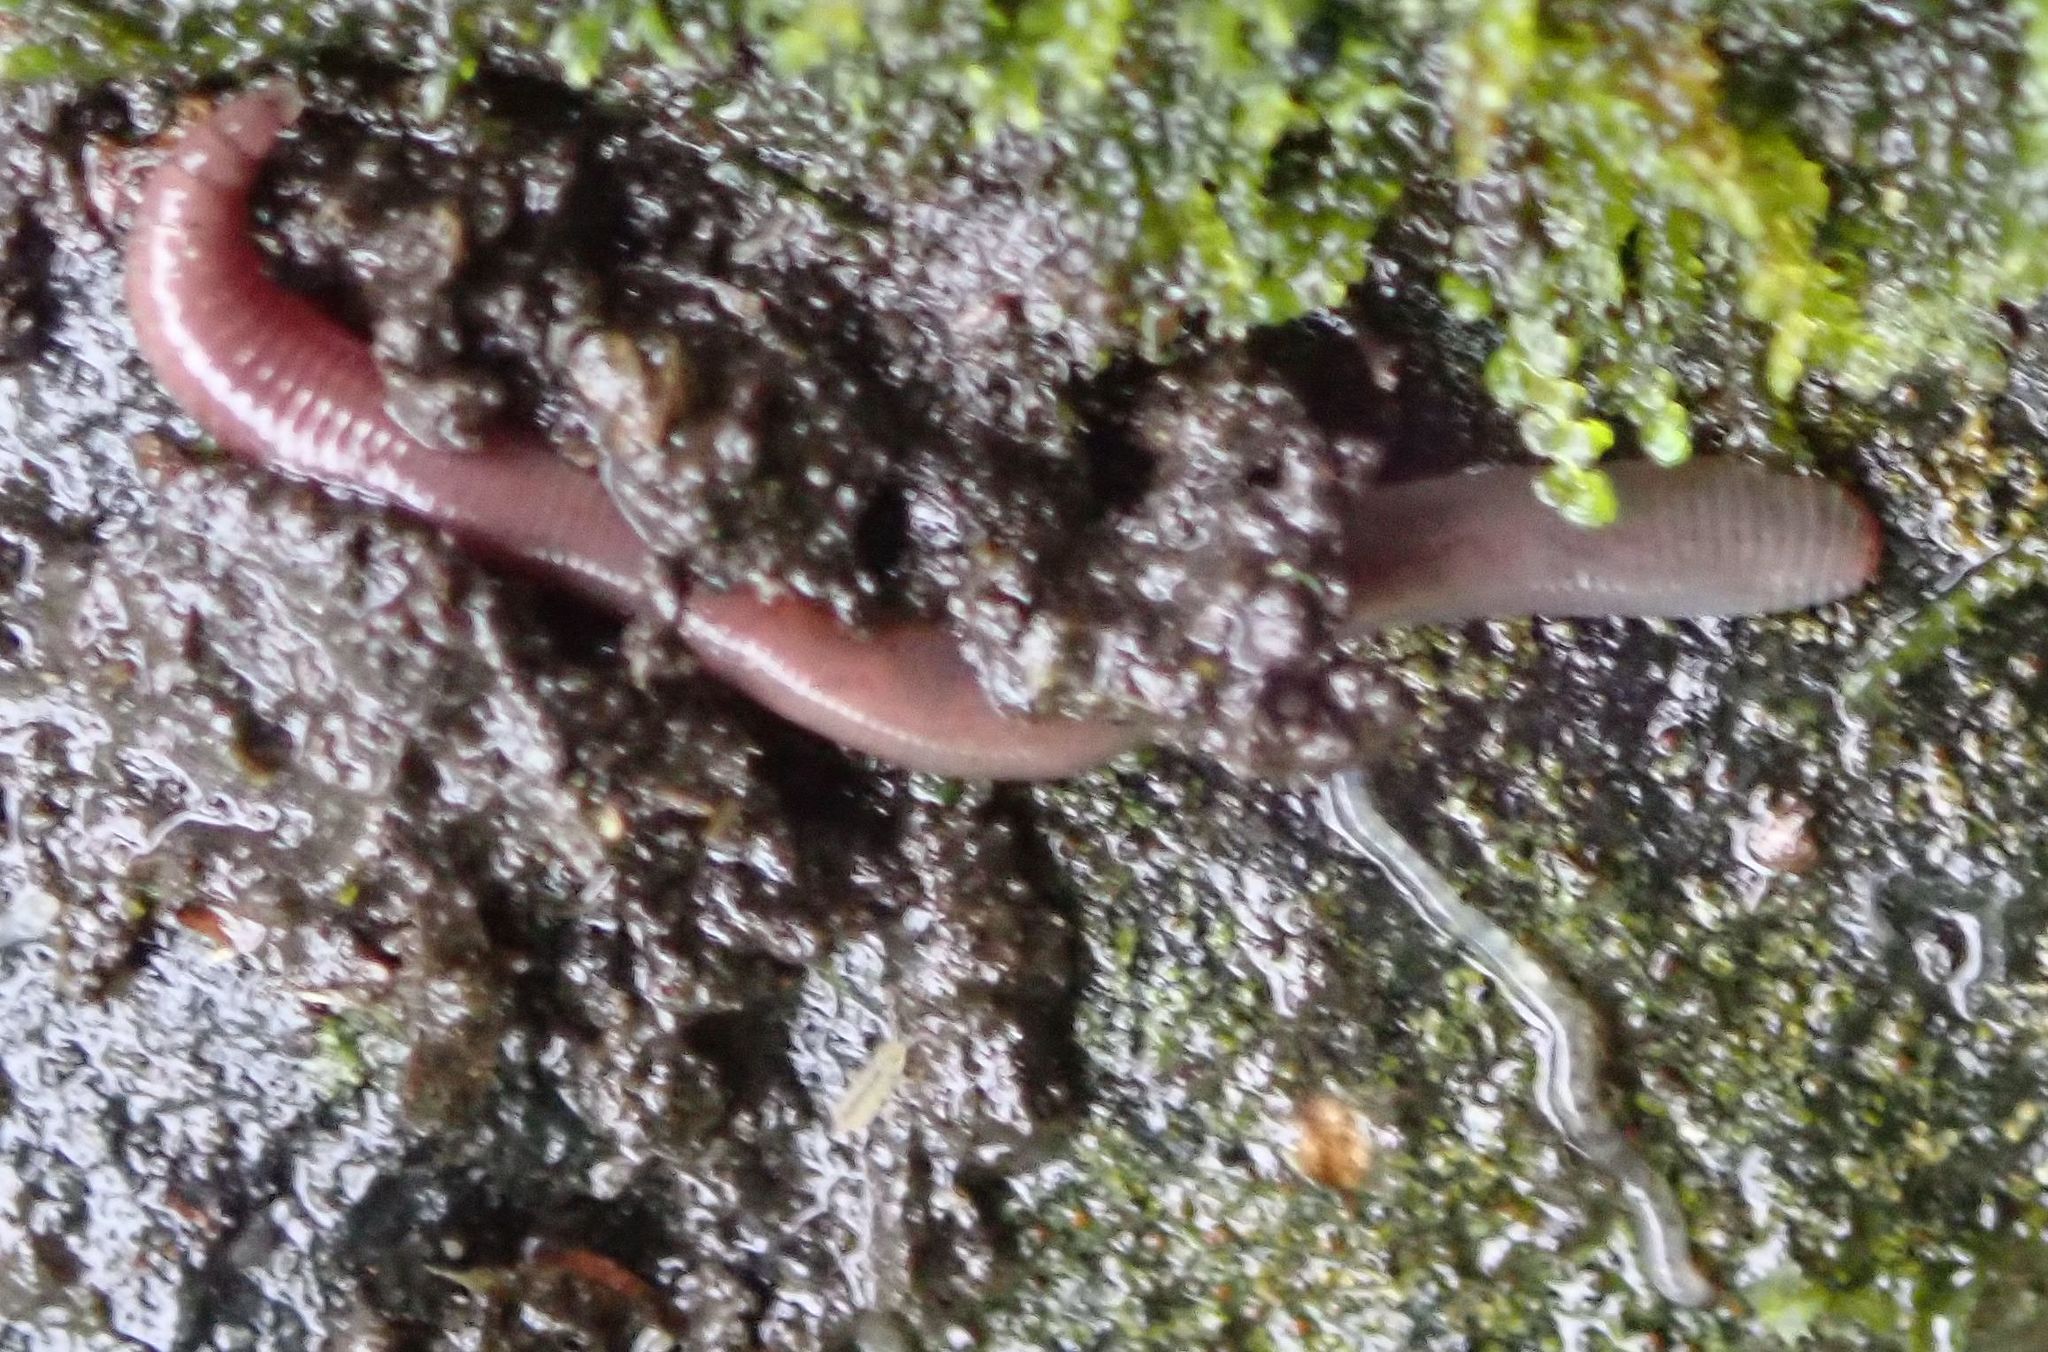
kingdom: Animalia
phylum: Annelida
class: Clitellata
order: Crassiclitellata
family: Lumbricidae
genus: Lumbricus
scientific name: Lumbricus terrestris
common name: Common earthworm
